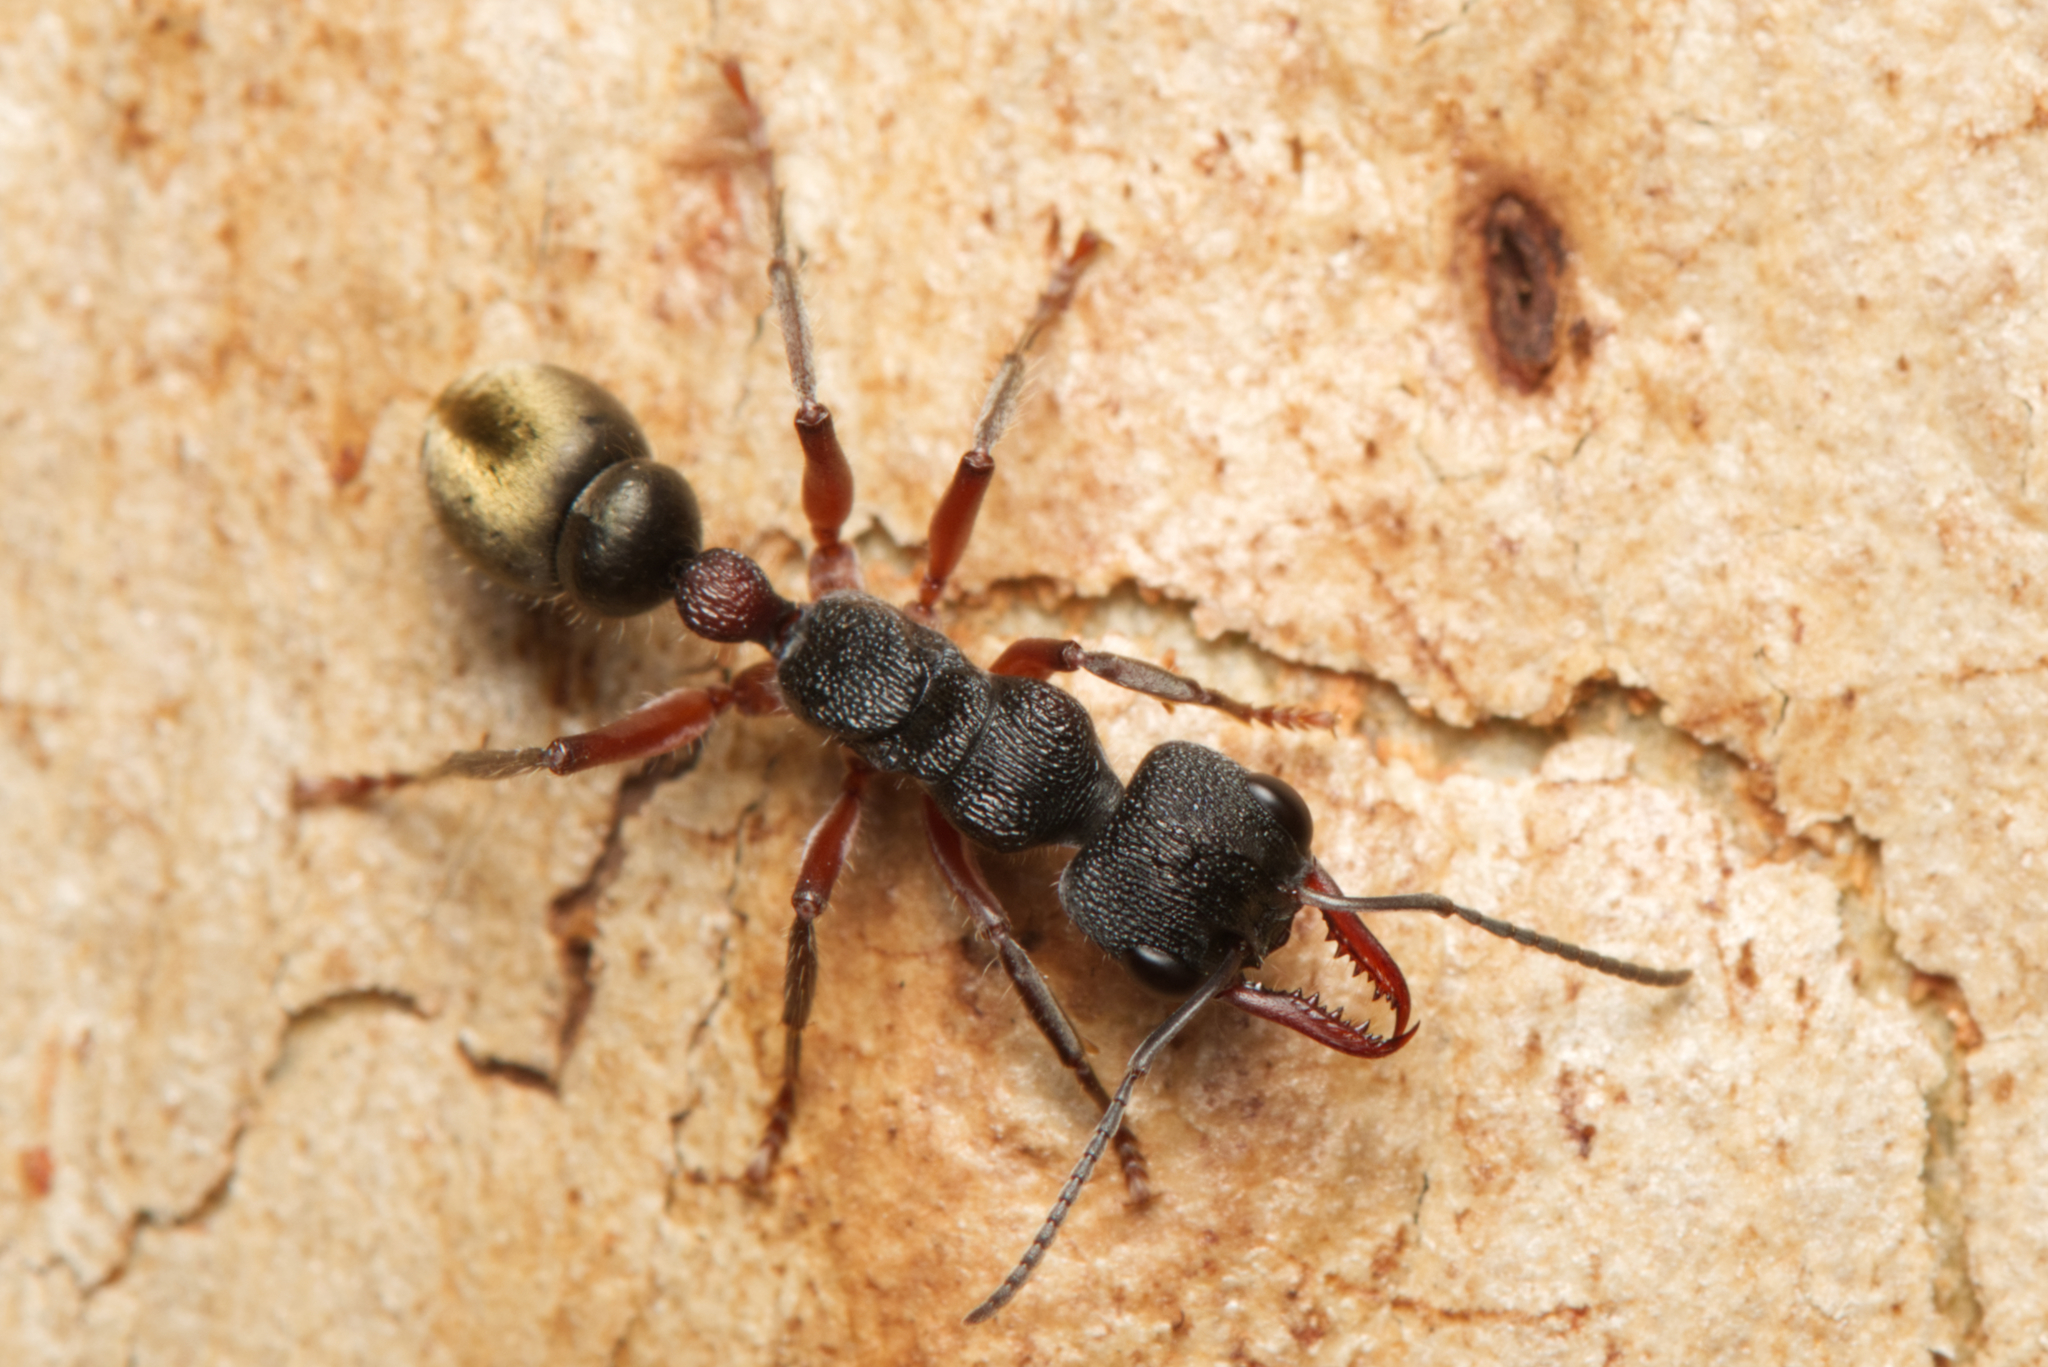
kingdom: Animalia
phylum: Arthropoda
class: Insecta
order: Hymenoptera
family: Formicidae
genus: Myrmecia
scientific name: Myrmecia chrysogaster
